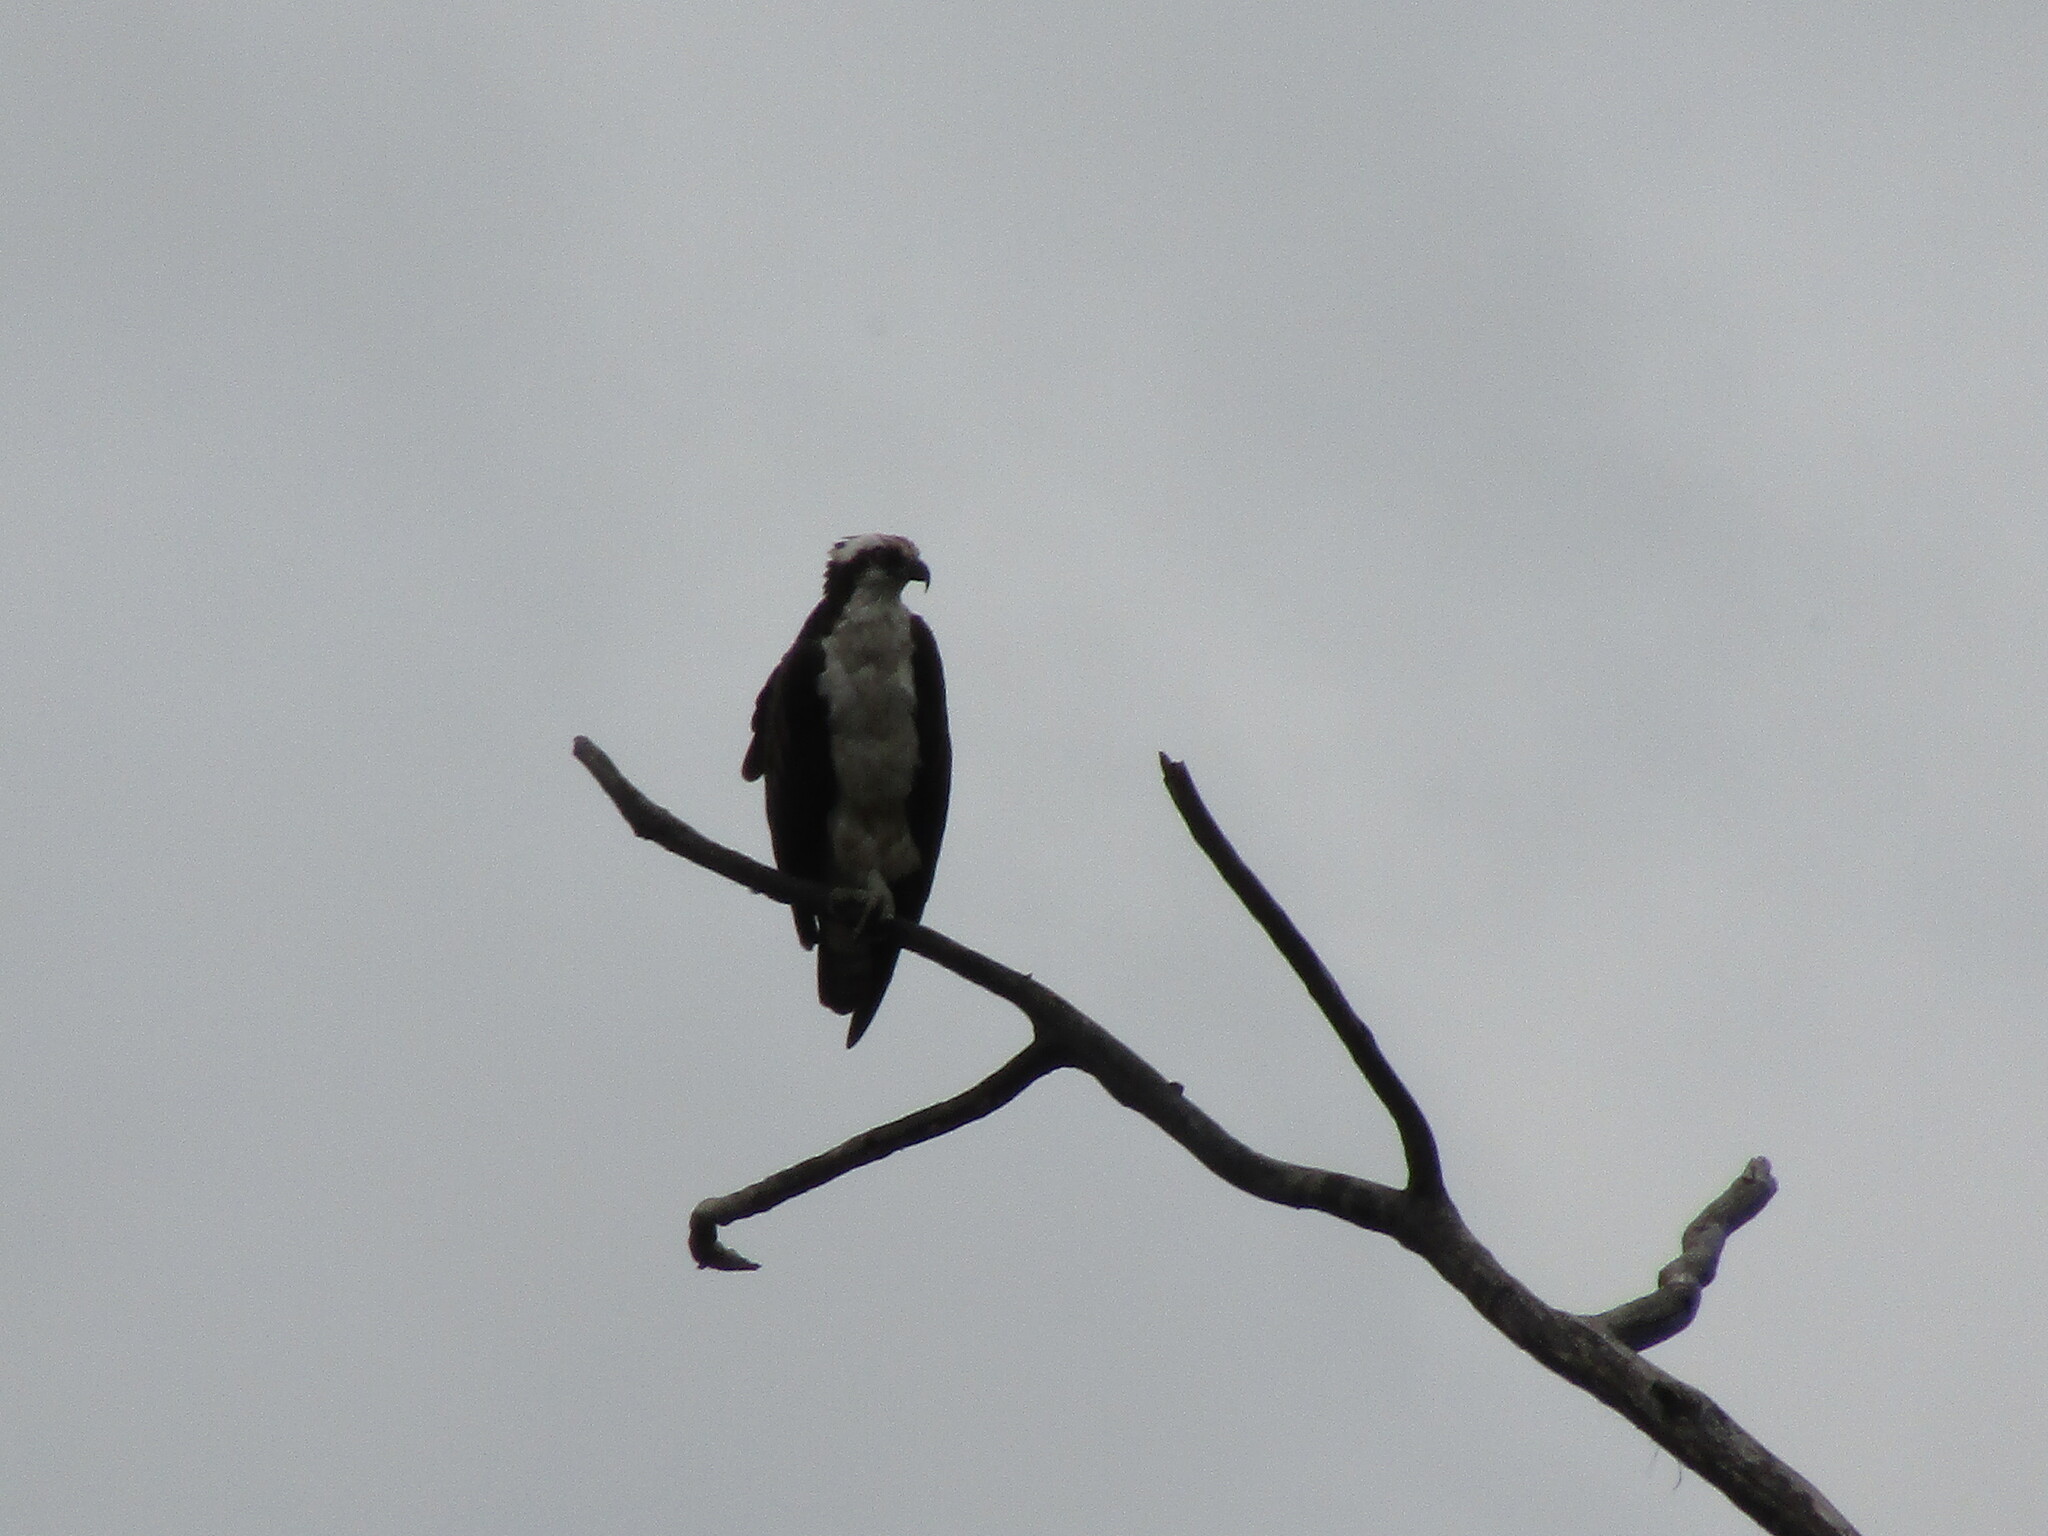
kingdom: Animalia
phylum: Chordata
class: Aves
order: Accipitriformes
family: Pandionidae
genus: Pandion
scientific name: Pandion haliaetus
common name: Osprey
